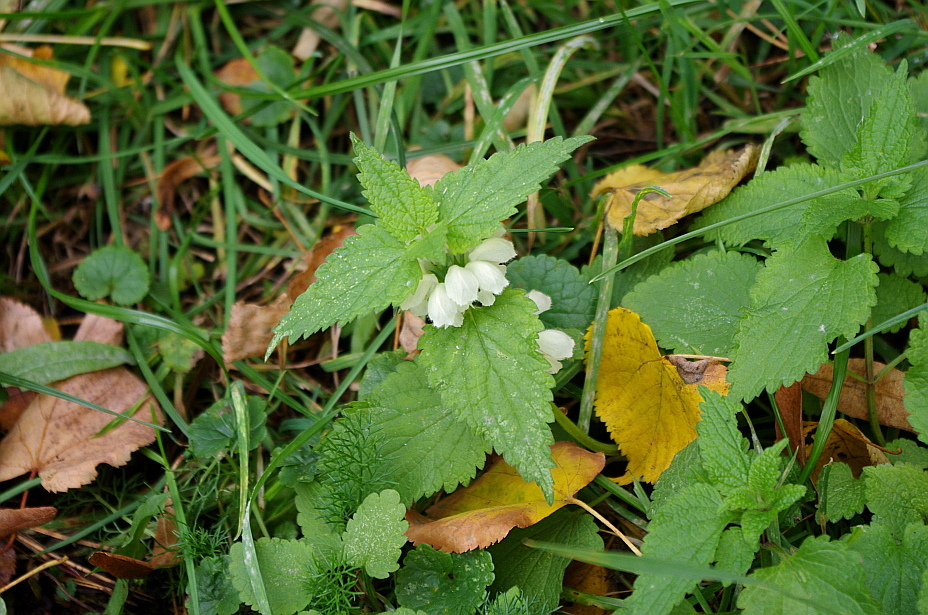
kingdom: Plantae
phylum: Tracheophyta
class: Magnoliopsida
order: Lamiales
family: Lamiaceae
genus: Lamium
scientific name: Lamium album
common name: White dead-nettle
